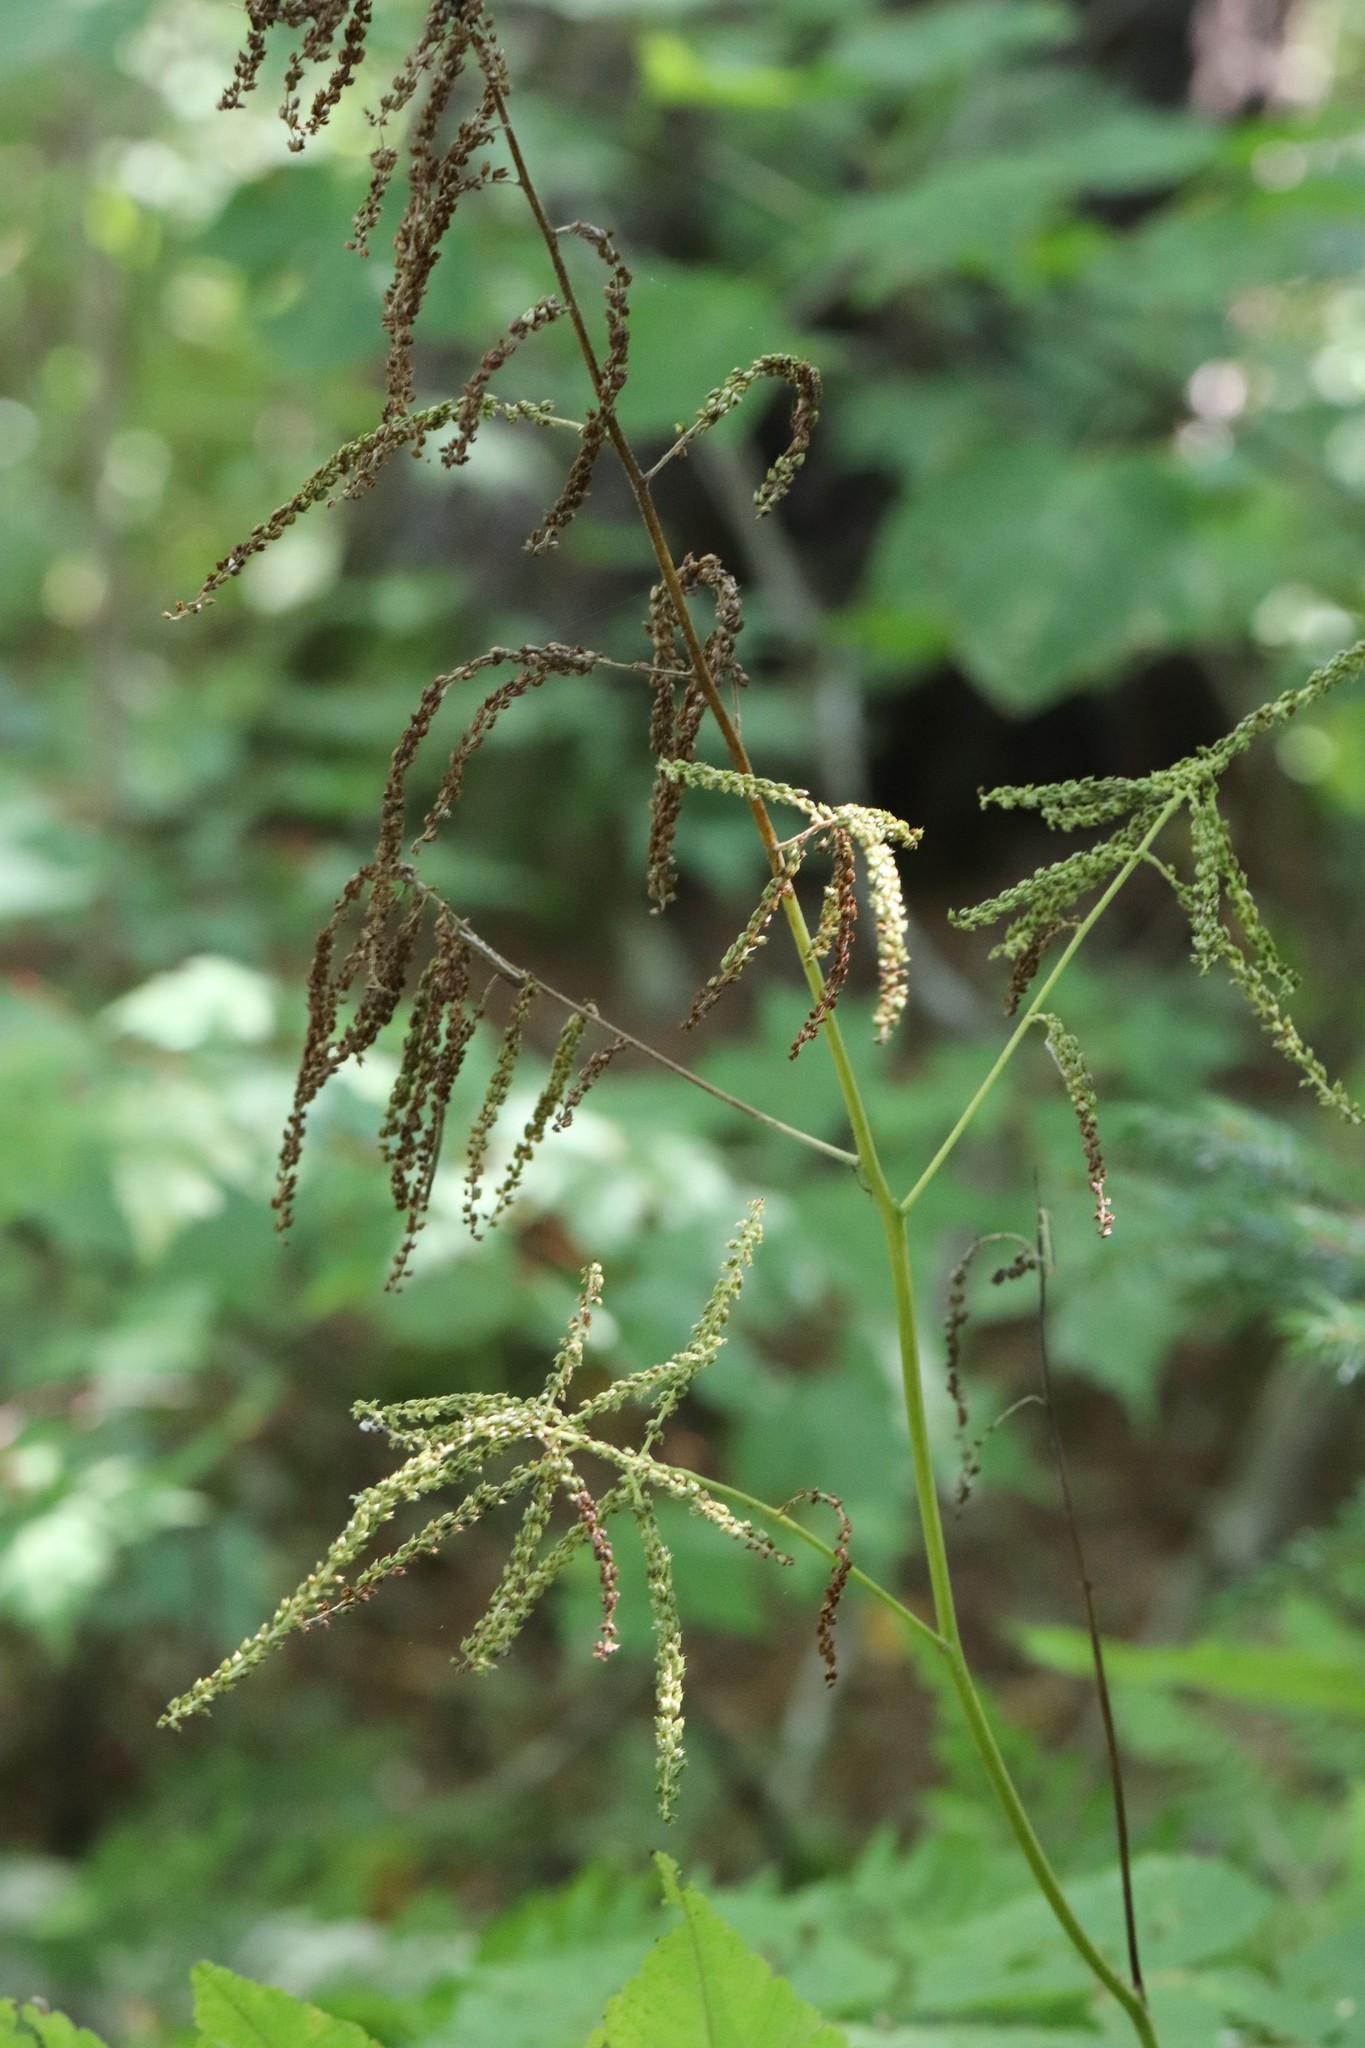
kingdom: Plantae
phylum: Tracheophyta
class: Magnoliopsida
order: Rosales
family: Rosaceae
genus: Aruncus
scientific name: Aruncus dioicus
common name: Buck's-beard
